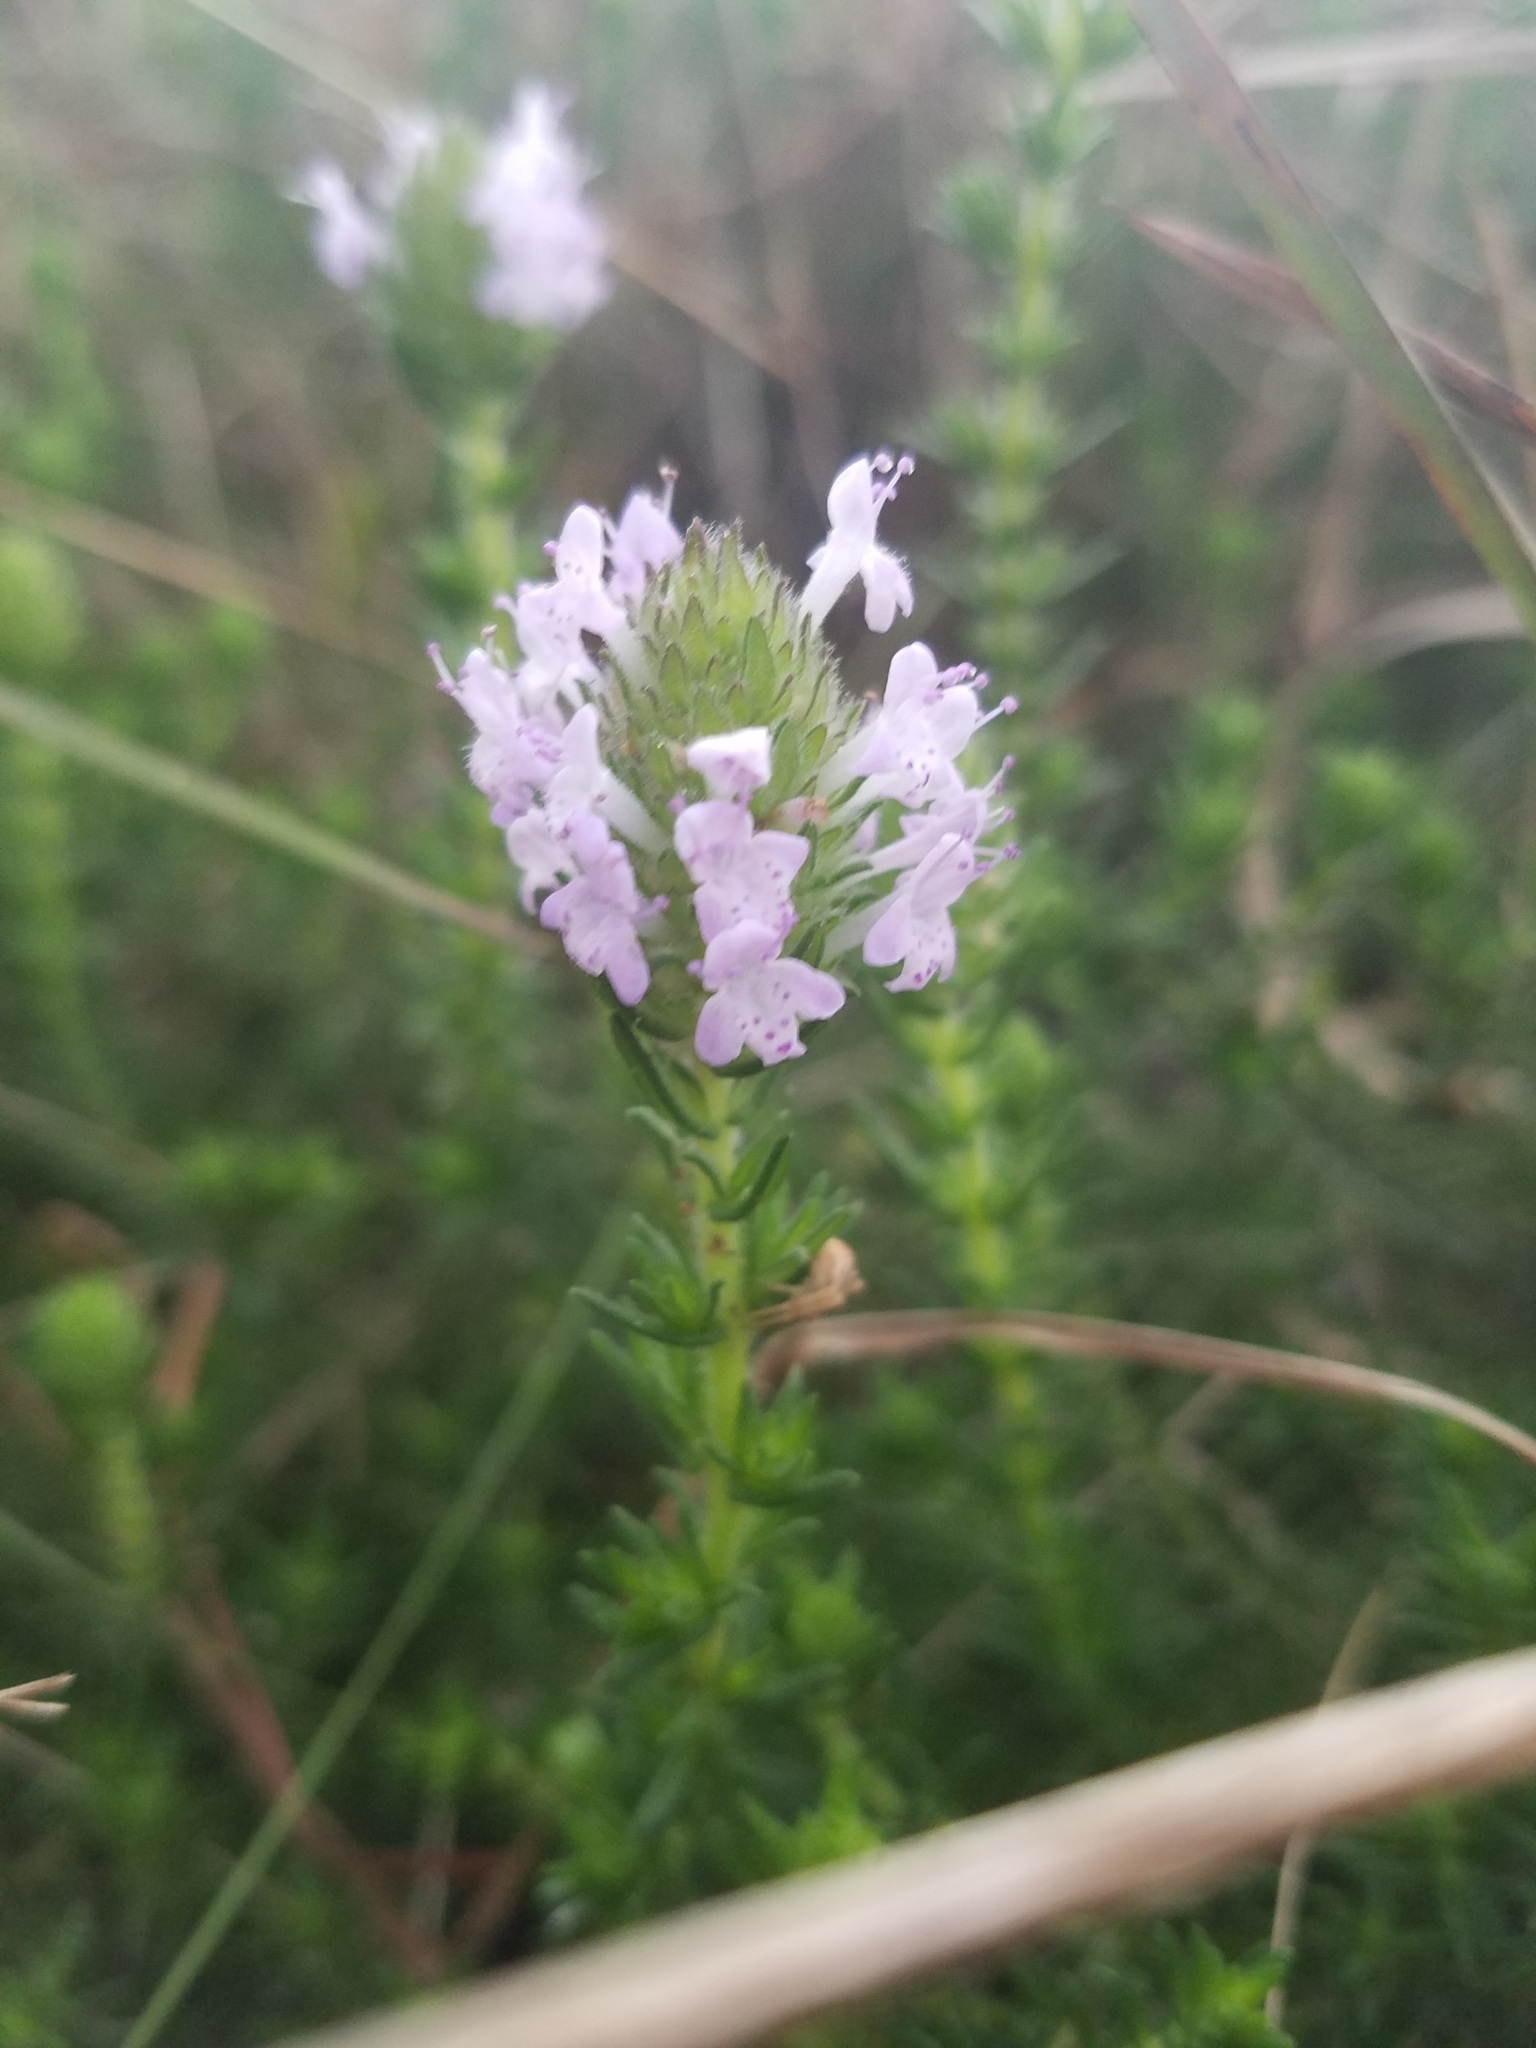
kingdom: Plantae
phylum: Tracheophyta
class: Magnoliopsida
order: Lamiales
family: Lamiaceae
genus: Piloblephis
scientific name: Piloblephis rigida
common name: Wild pennyroyal
